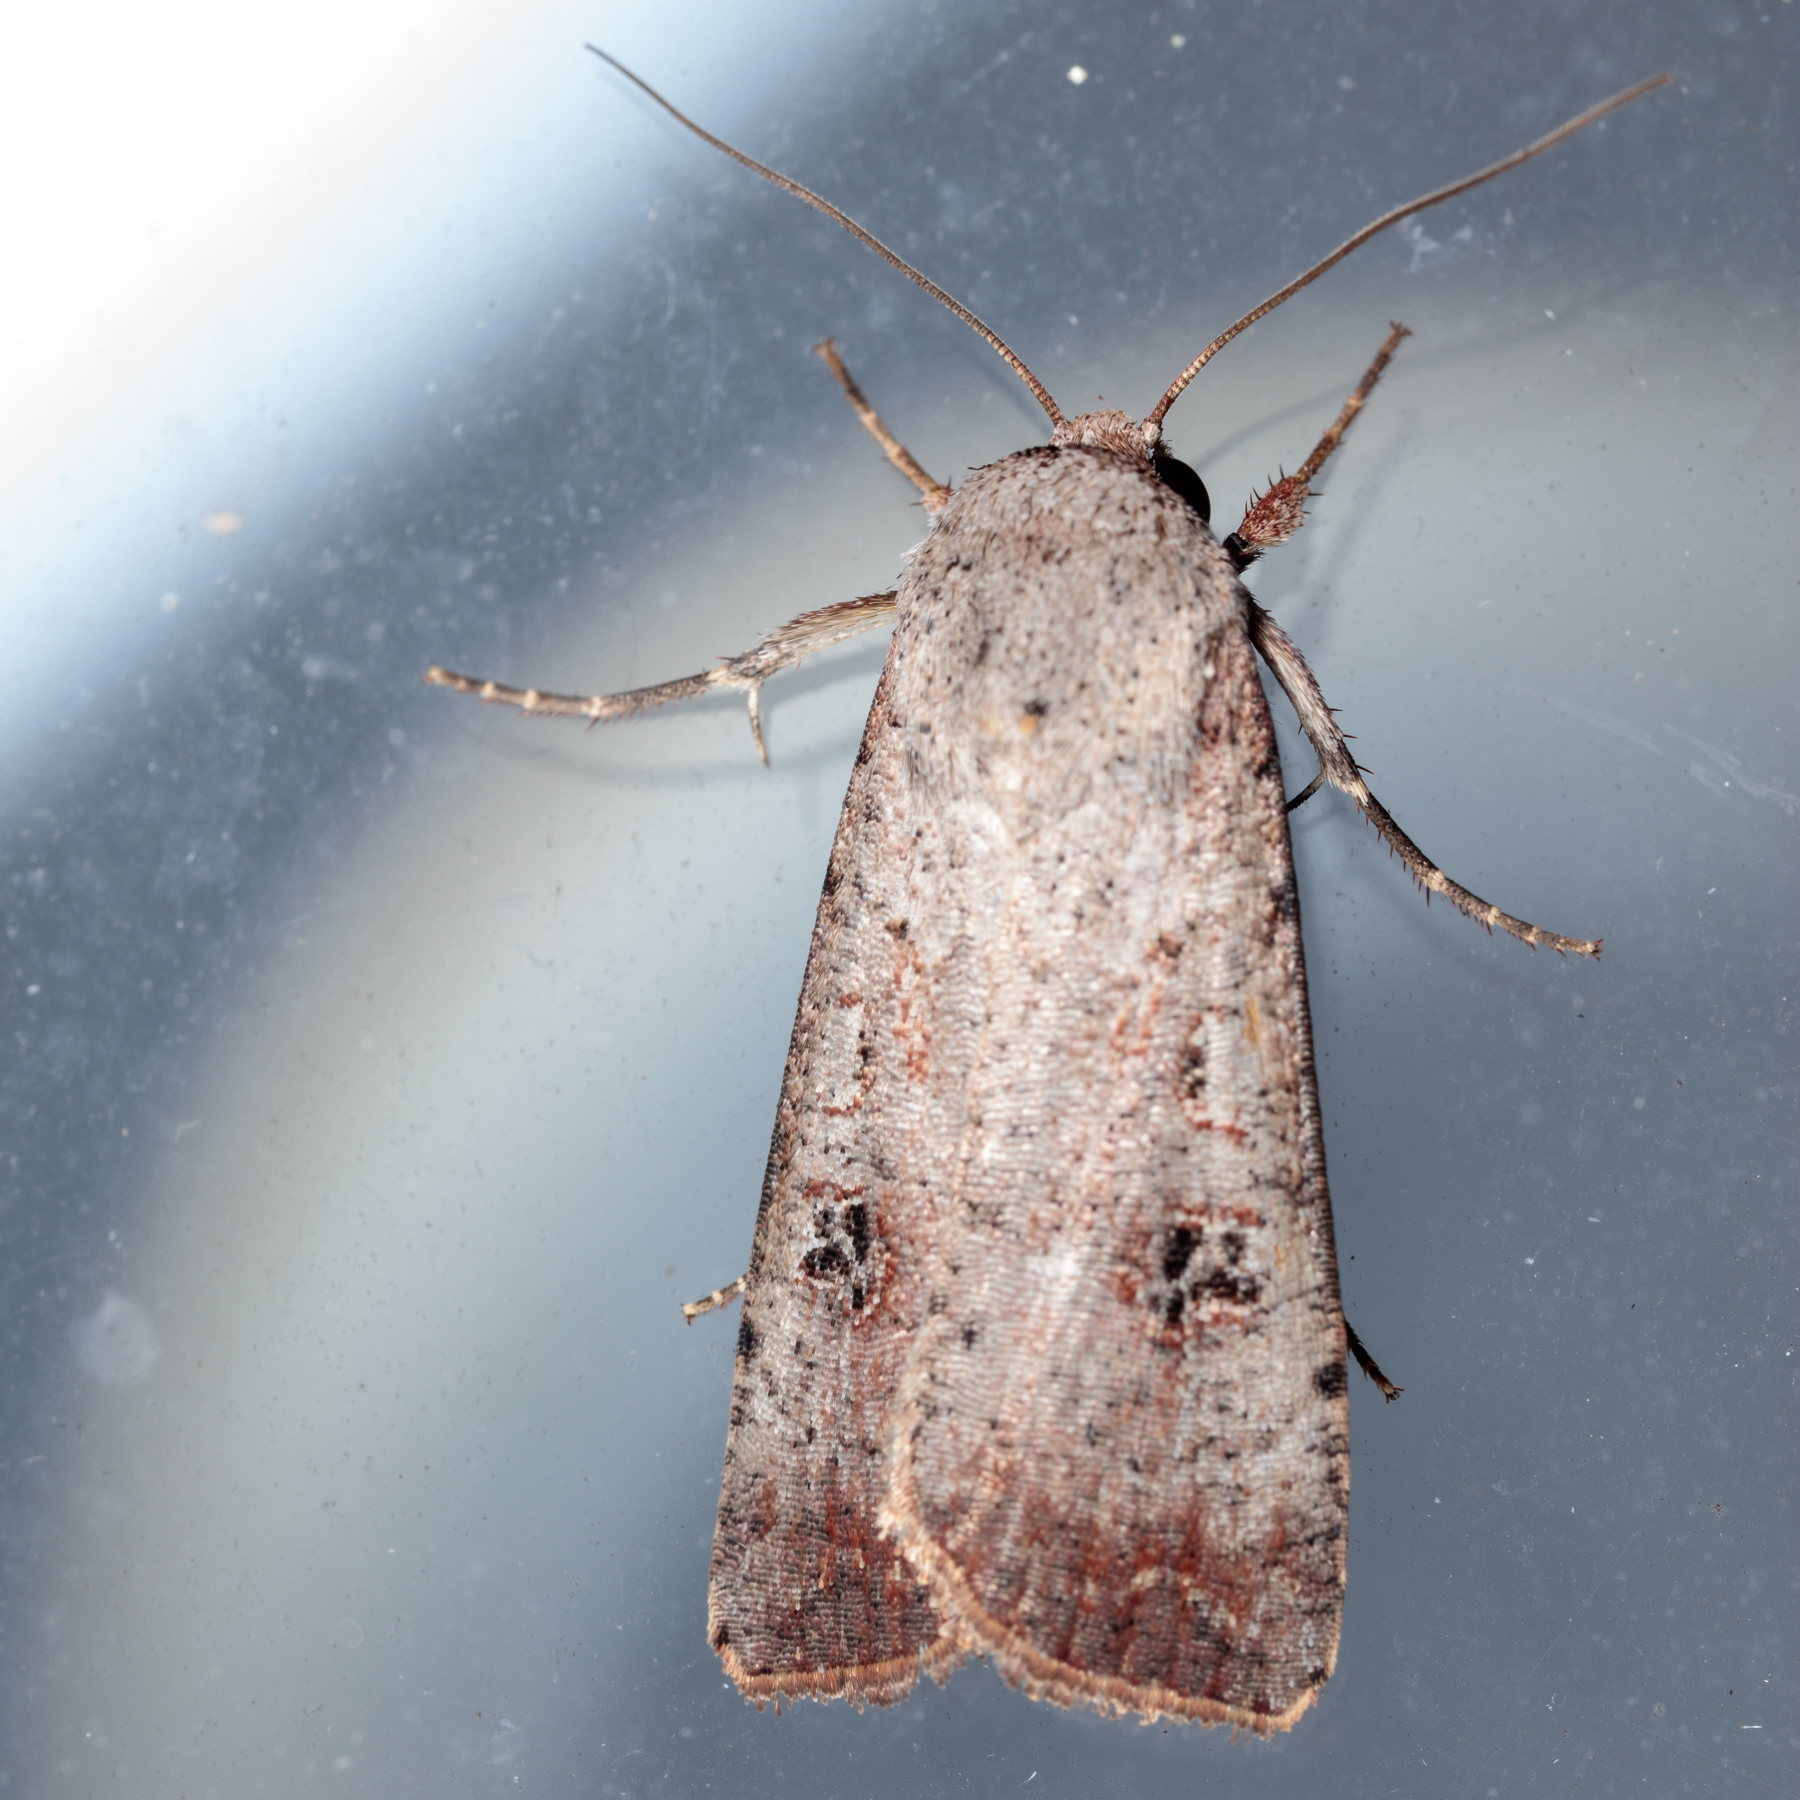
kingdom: Animalia
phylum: Arthropoda
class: Insecta
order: Lepidoptera
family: Noctuidae
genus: Anicla
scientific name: Anicla infecta
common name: Green cutworm
